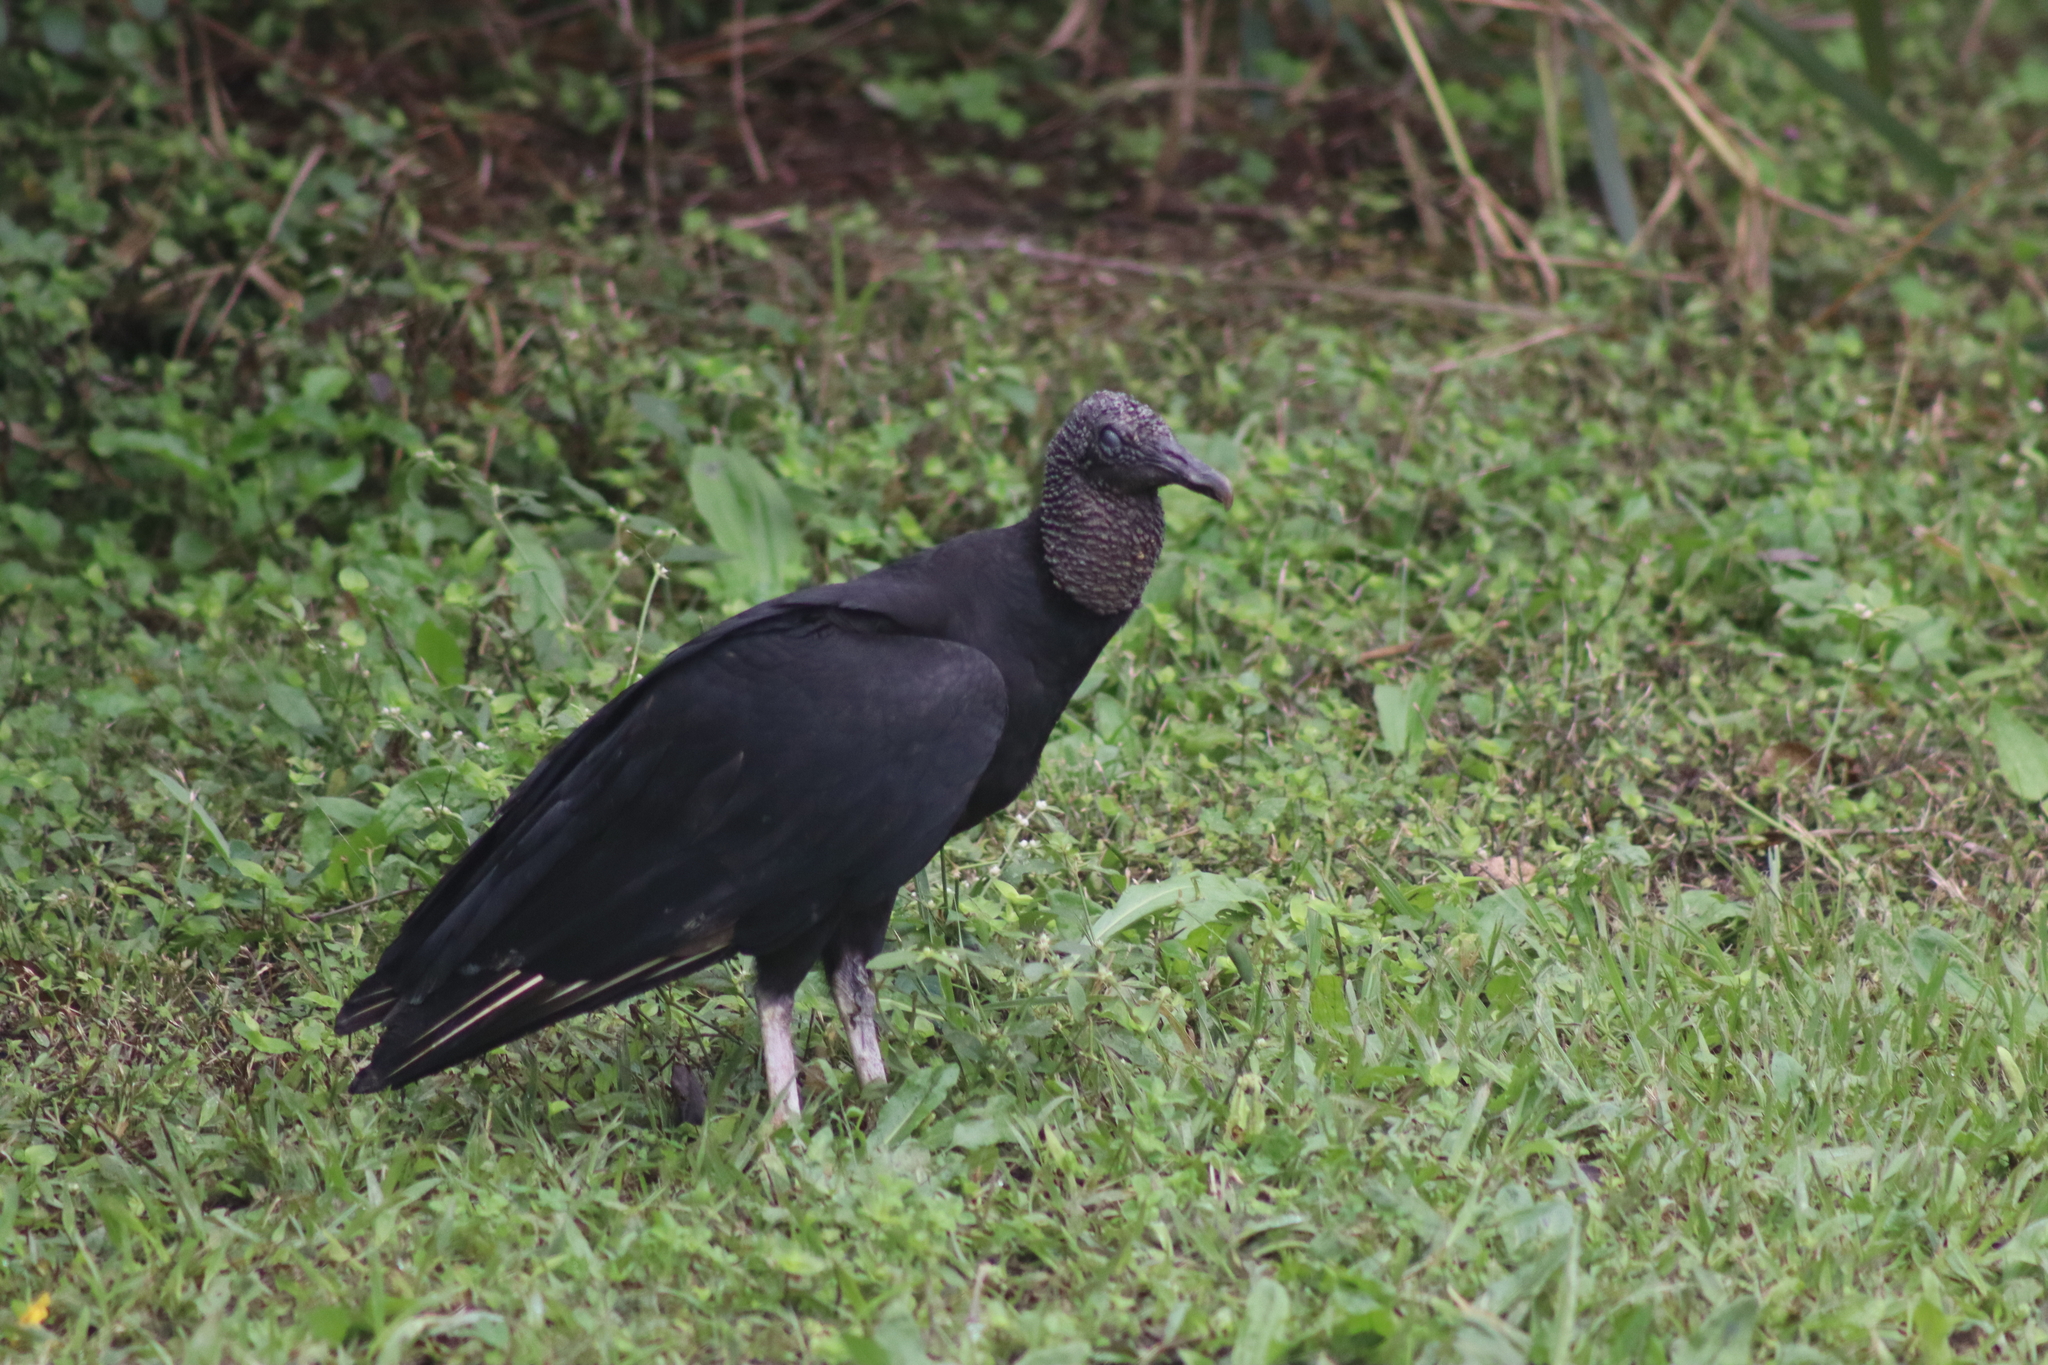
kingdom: Animalia
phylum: Chordata
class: Aves
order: Accipitriformes
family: Cathartidae
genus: Coragyps
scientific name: Coragyps atratus
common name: Black vulture
